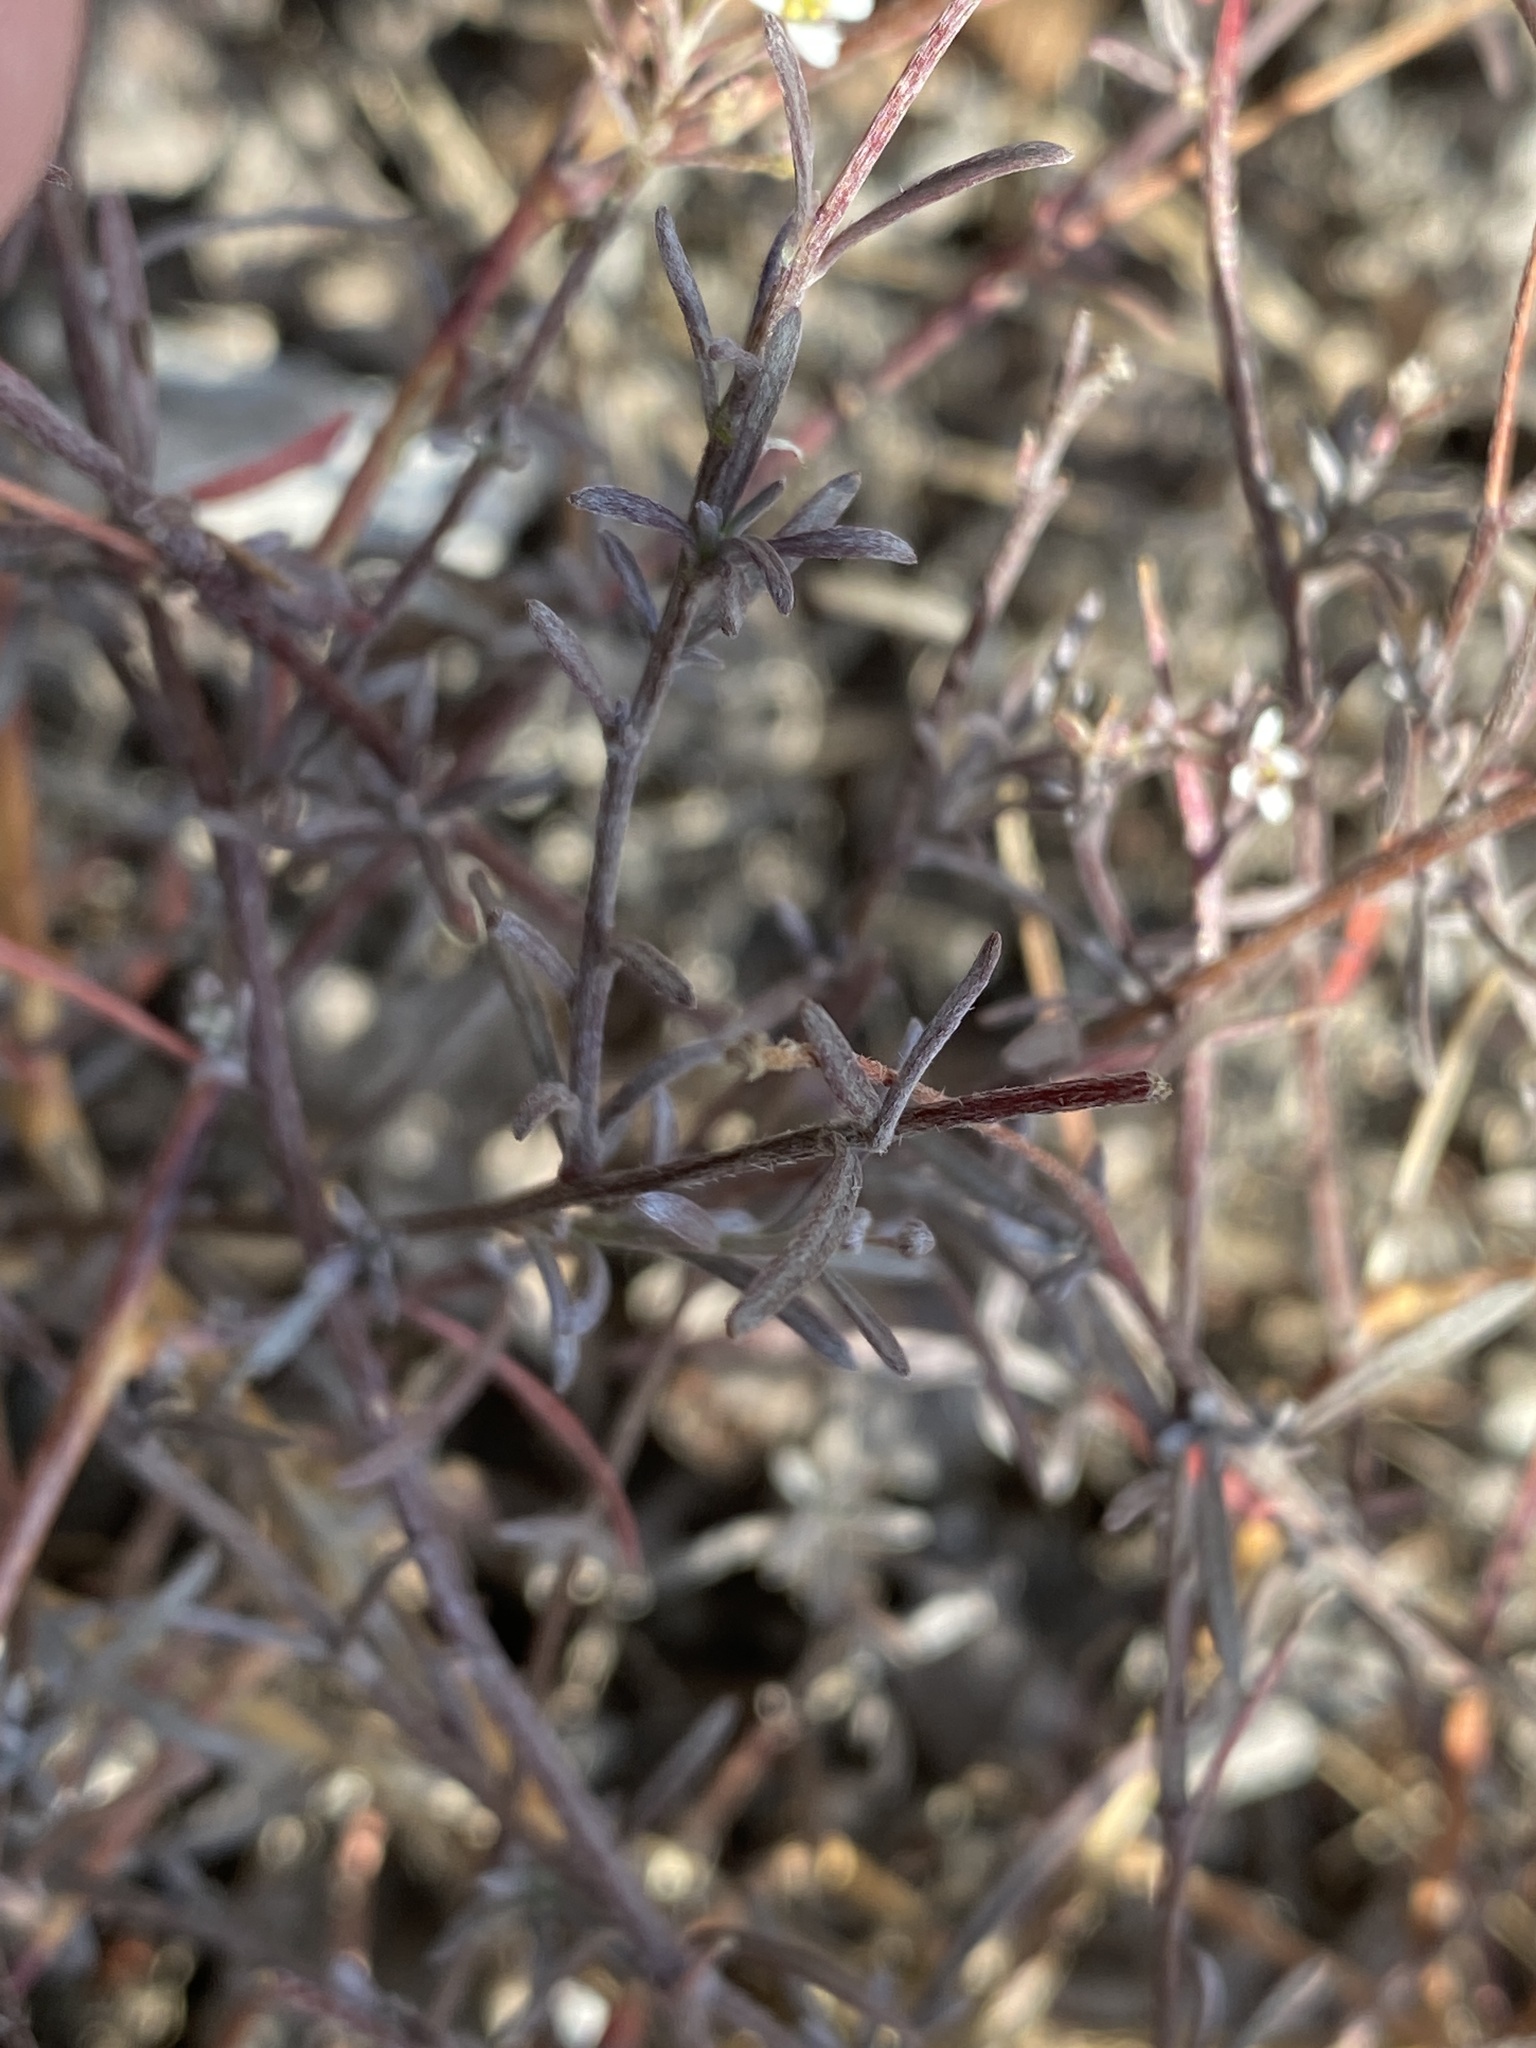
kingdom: Plantae
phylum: Tracheophyta
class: Magnoliopsida
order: Brassicales
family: Brassicaceae
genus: Lobularia
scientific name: Lobularia canariensis
